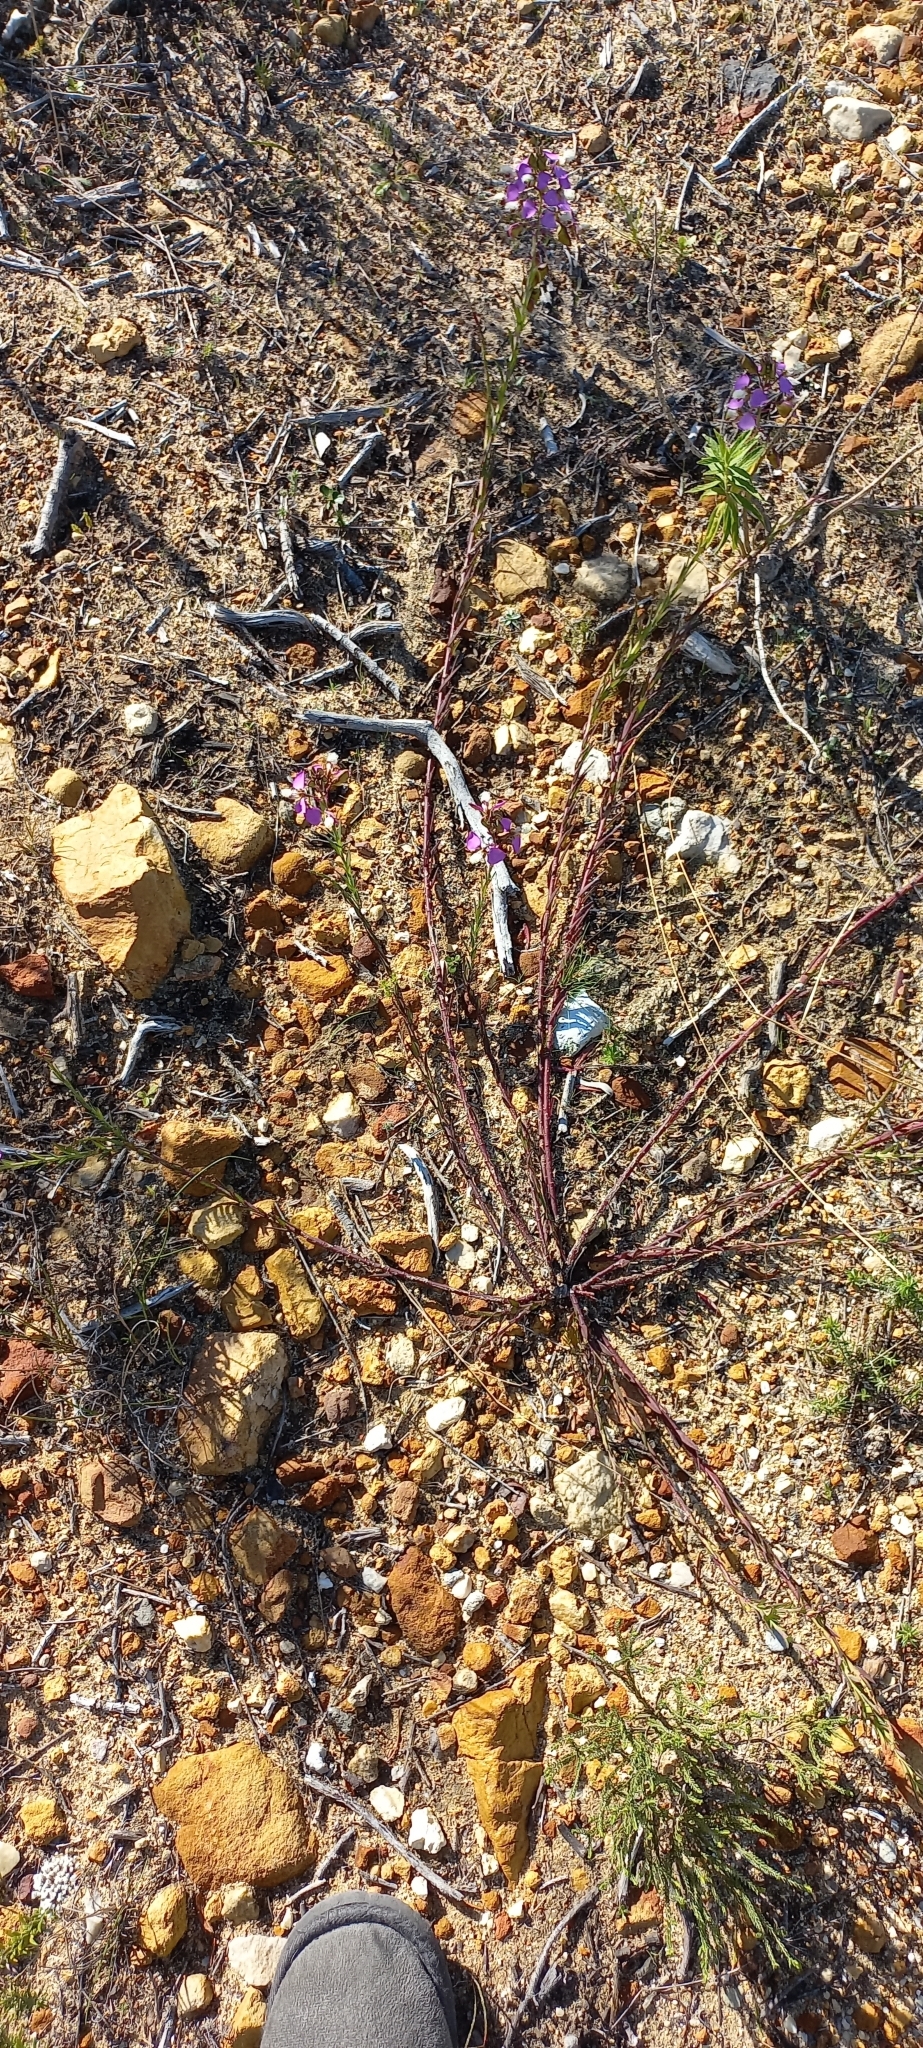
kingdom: Plantae
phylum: Tracheophyta
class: Magnoliopsida
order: Fabales
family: Polygalaceae
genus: Polygala
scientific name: Polygala bracteolata
